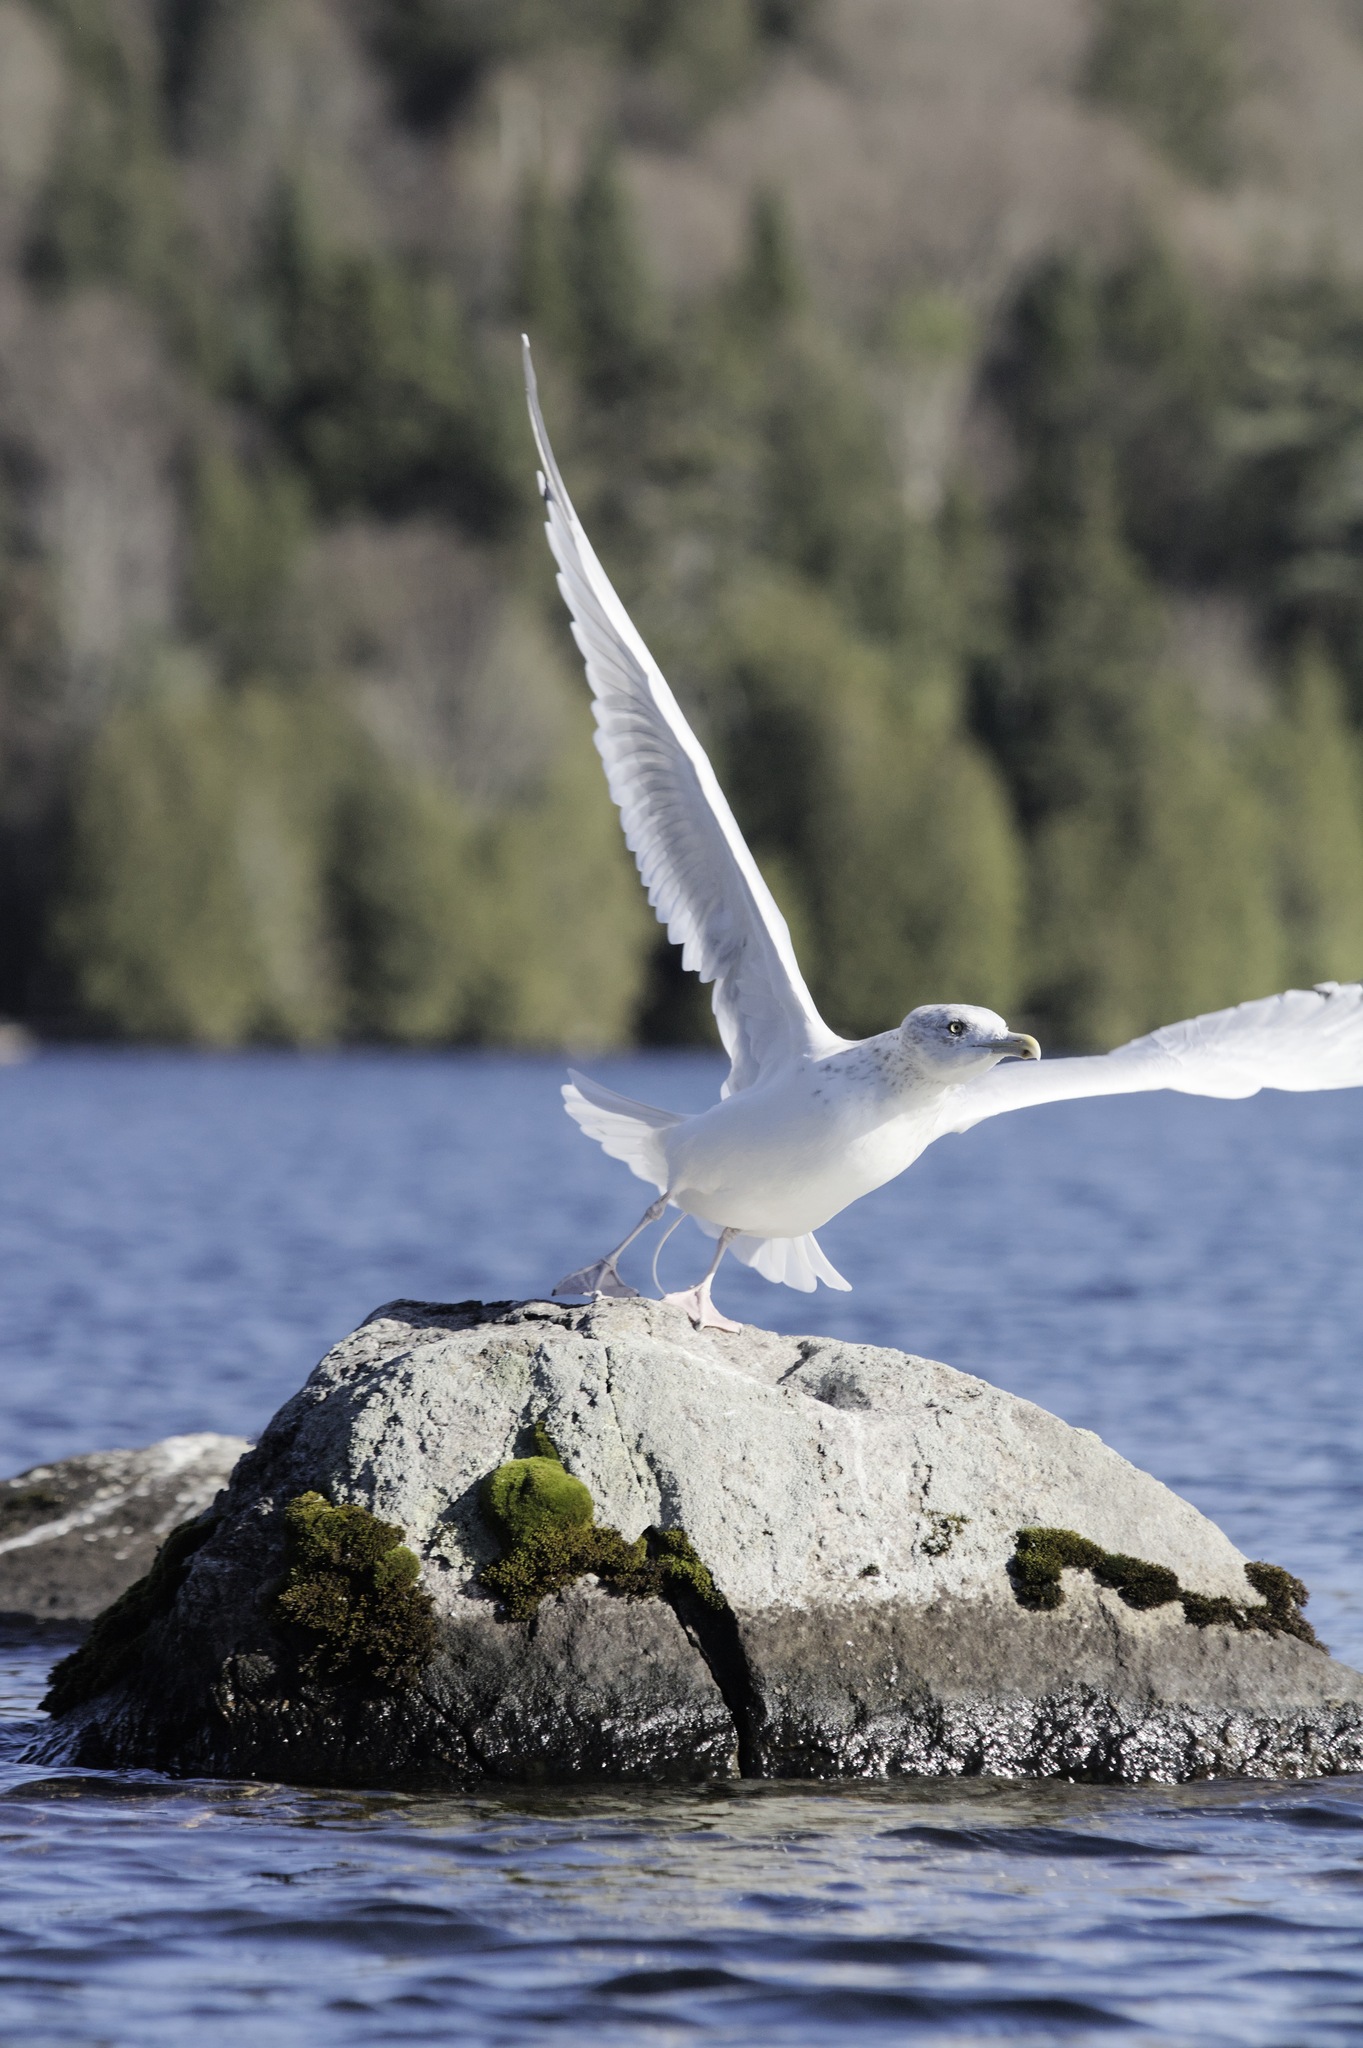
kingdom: Animalia
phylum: Chordata
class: Aves
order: Charadriiformes
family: Laridae
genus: Larus
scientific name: Larus argentatus
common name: Herring gull
